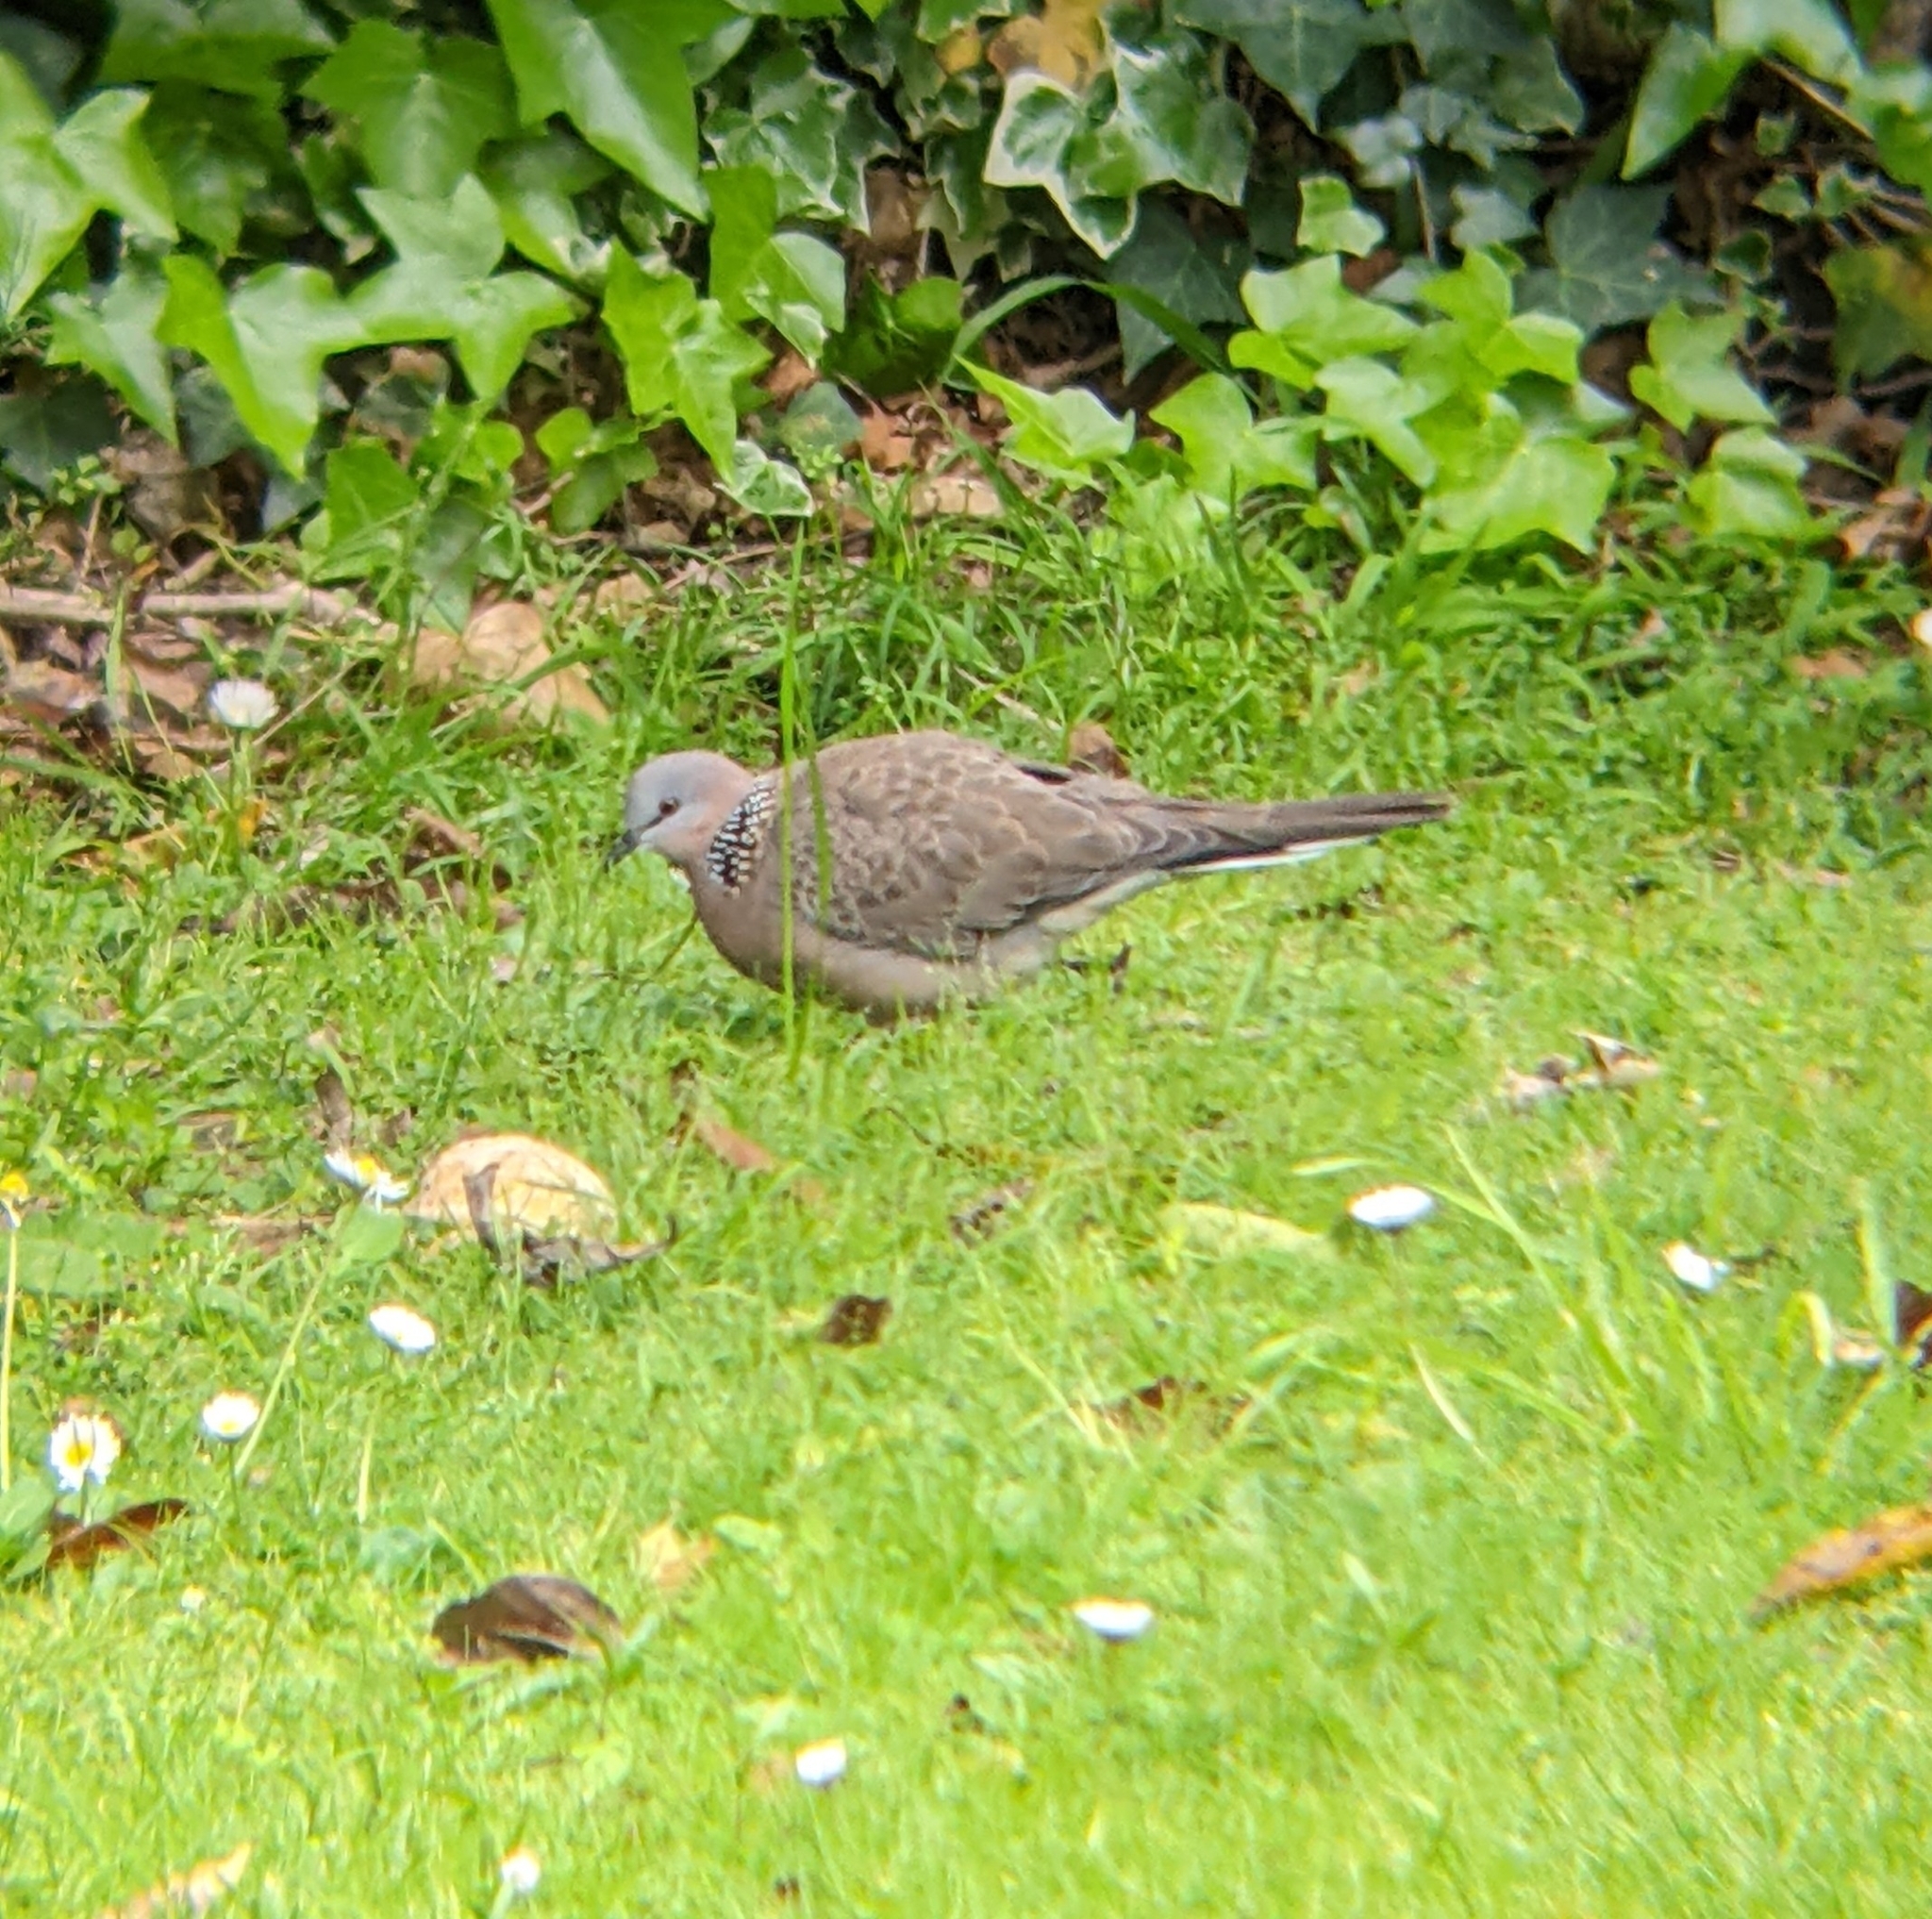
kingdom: Animalia
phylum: Chordata
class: Aves
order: Columbiformes
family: Columbidae
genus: Spilopelia
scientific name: Spilopelia chinensis
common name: Spotted dove
